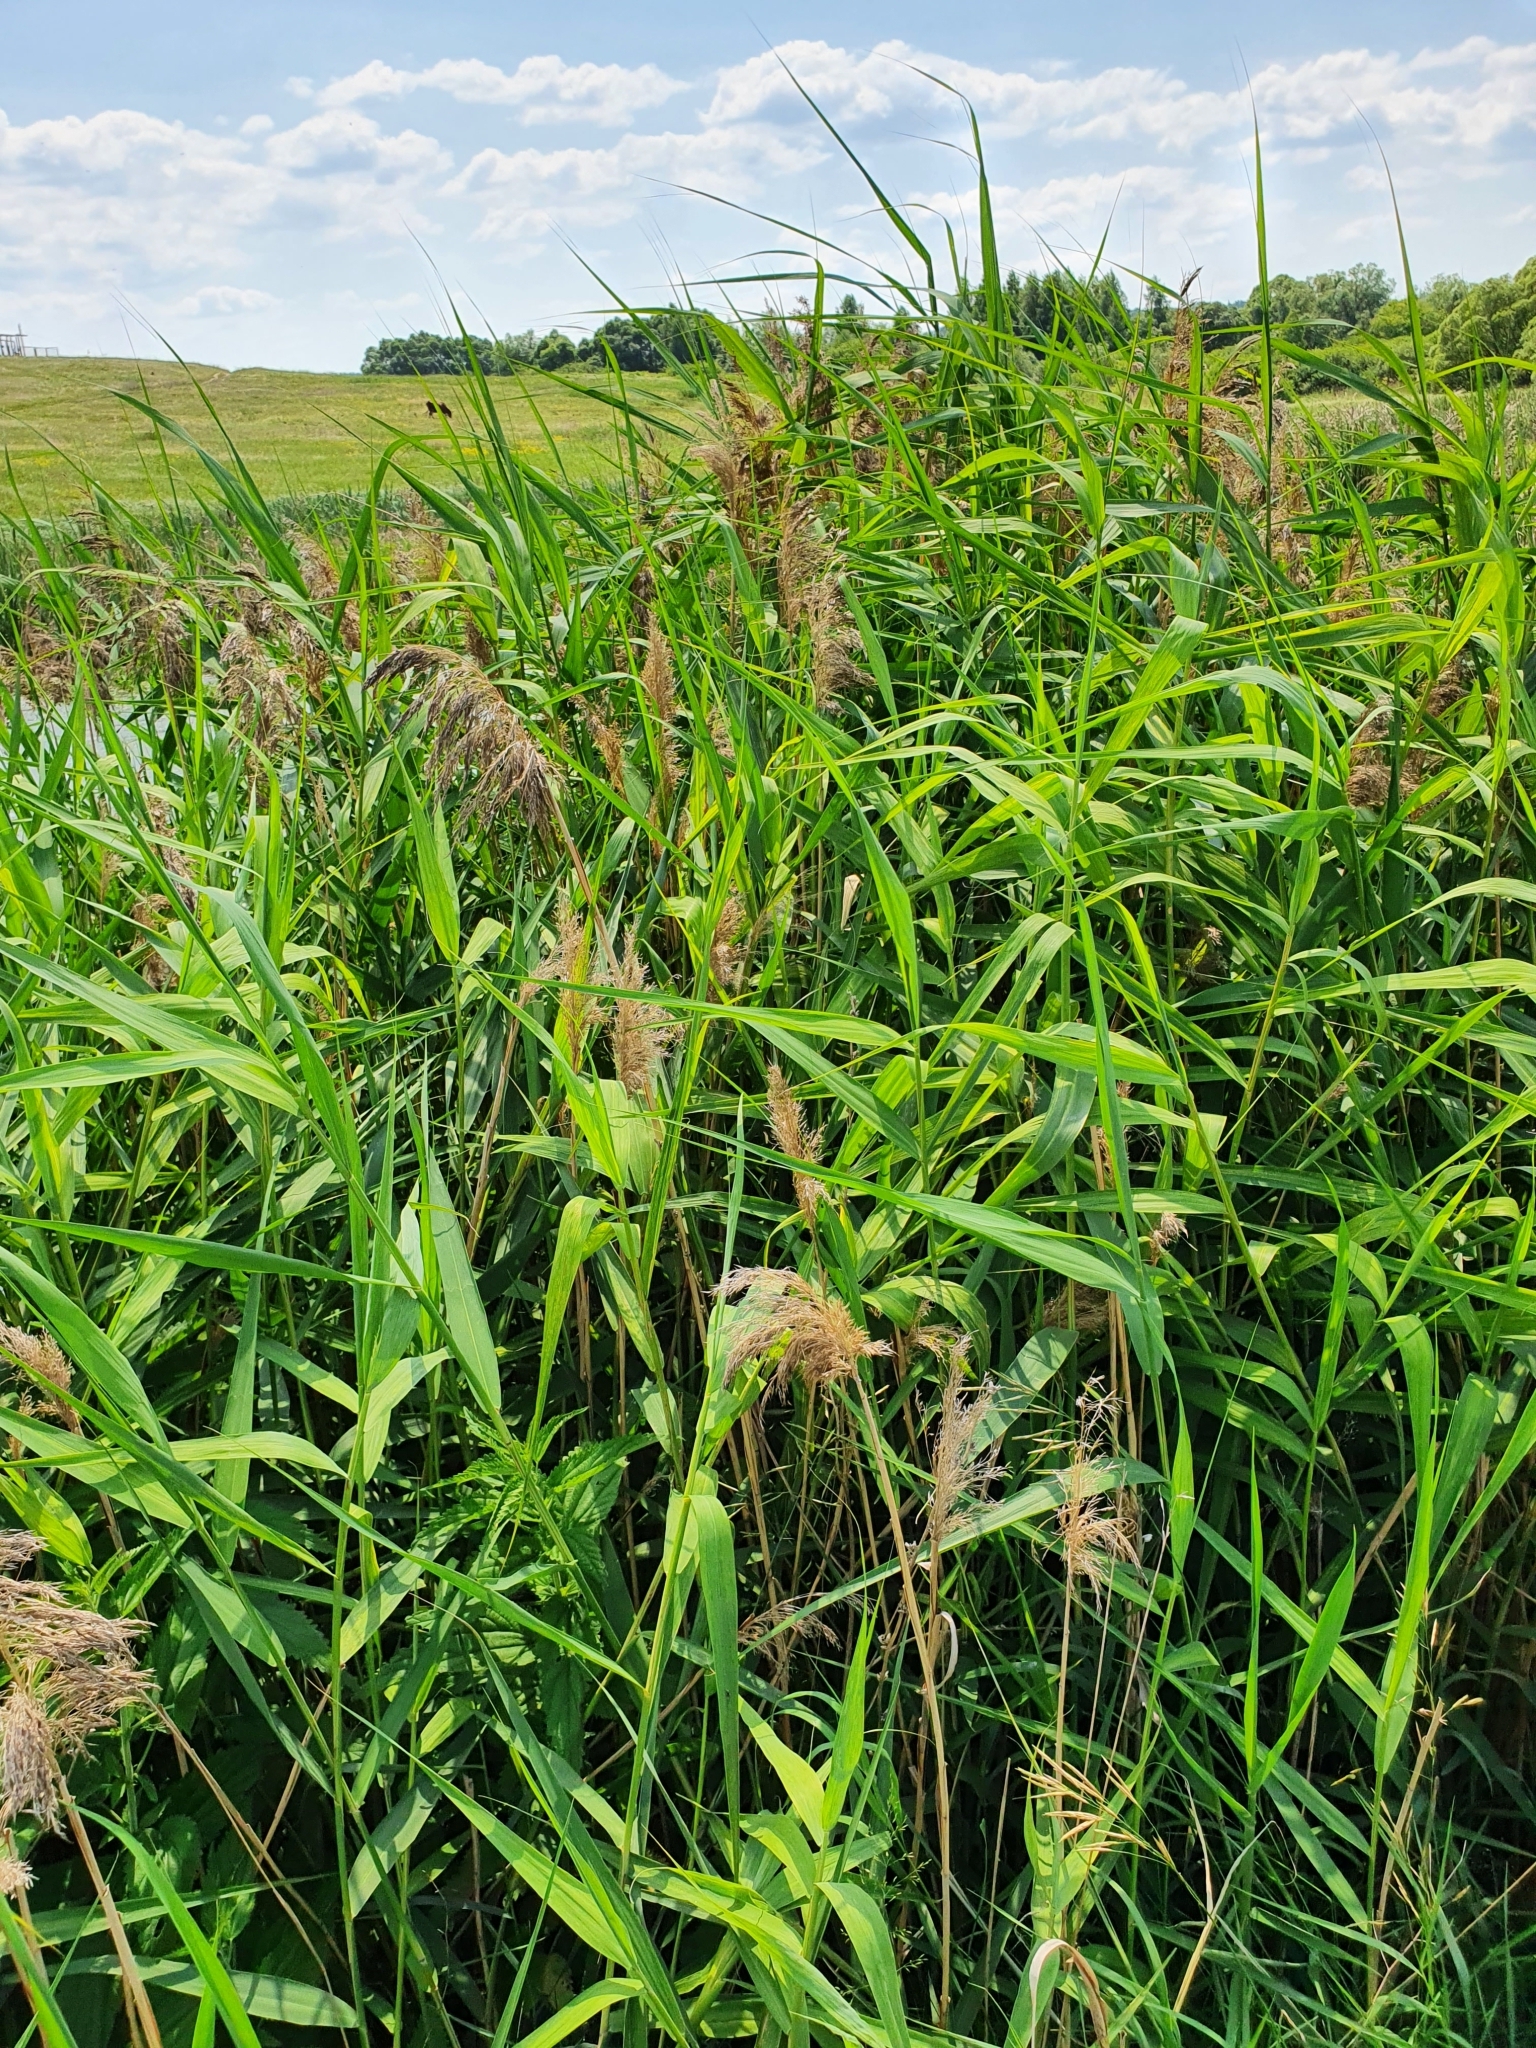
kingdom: Plantae
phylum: Tracheophyta
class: Liliopsida
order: Poales
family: Poaceae
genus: Phragmites
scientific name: Phragmites australis
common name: Common reed
